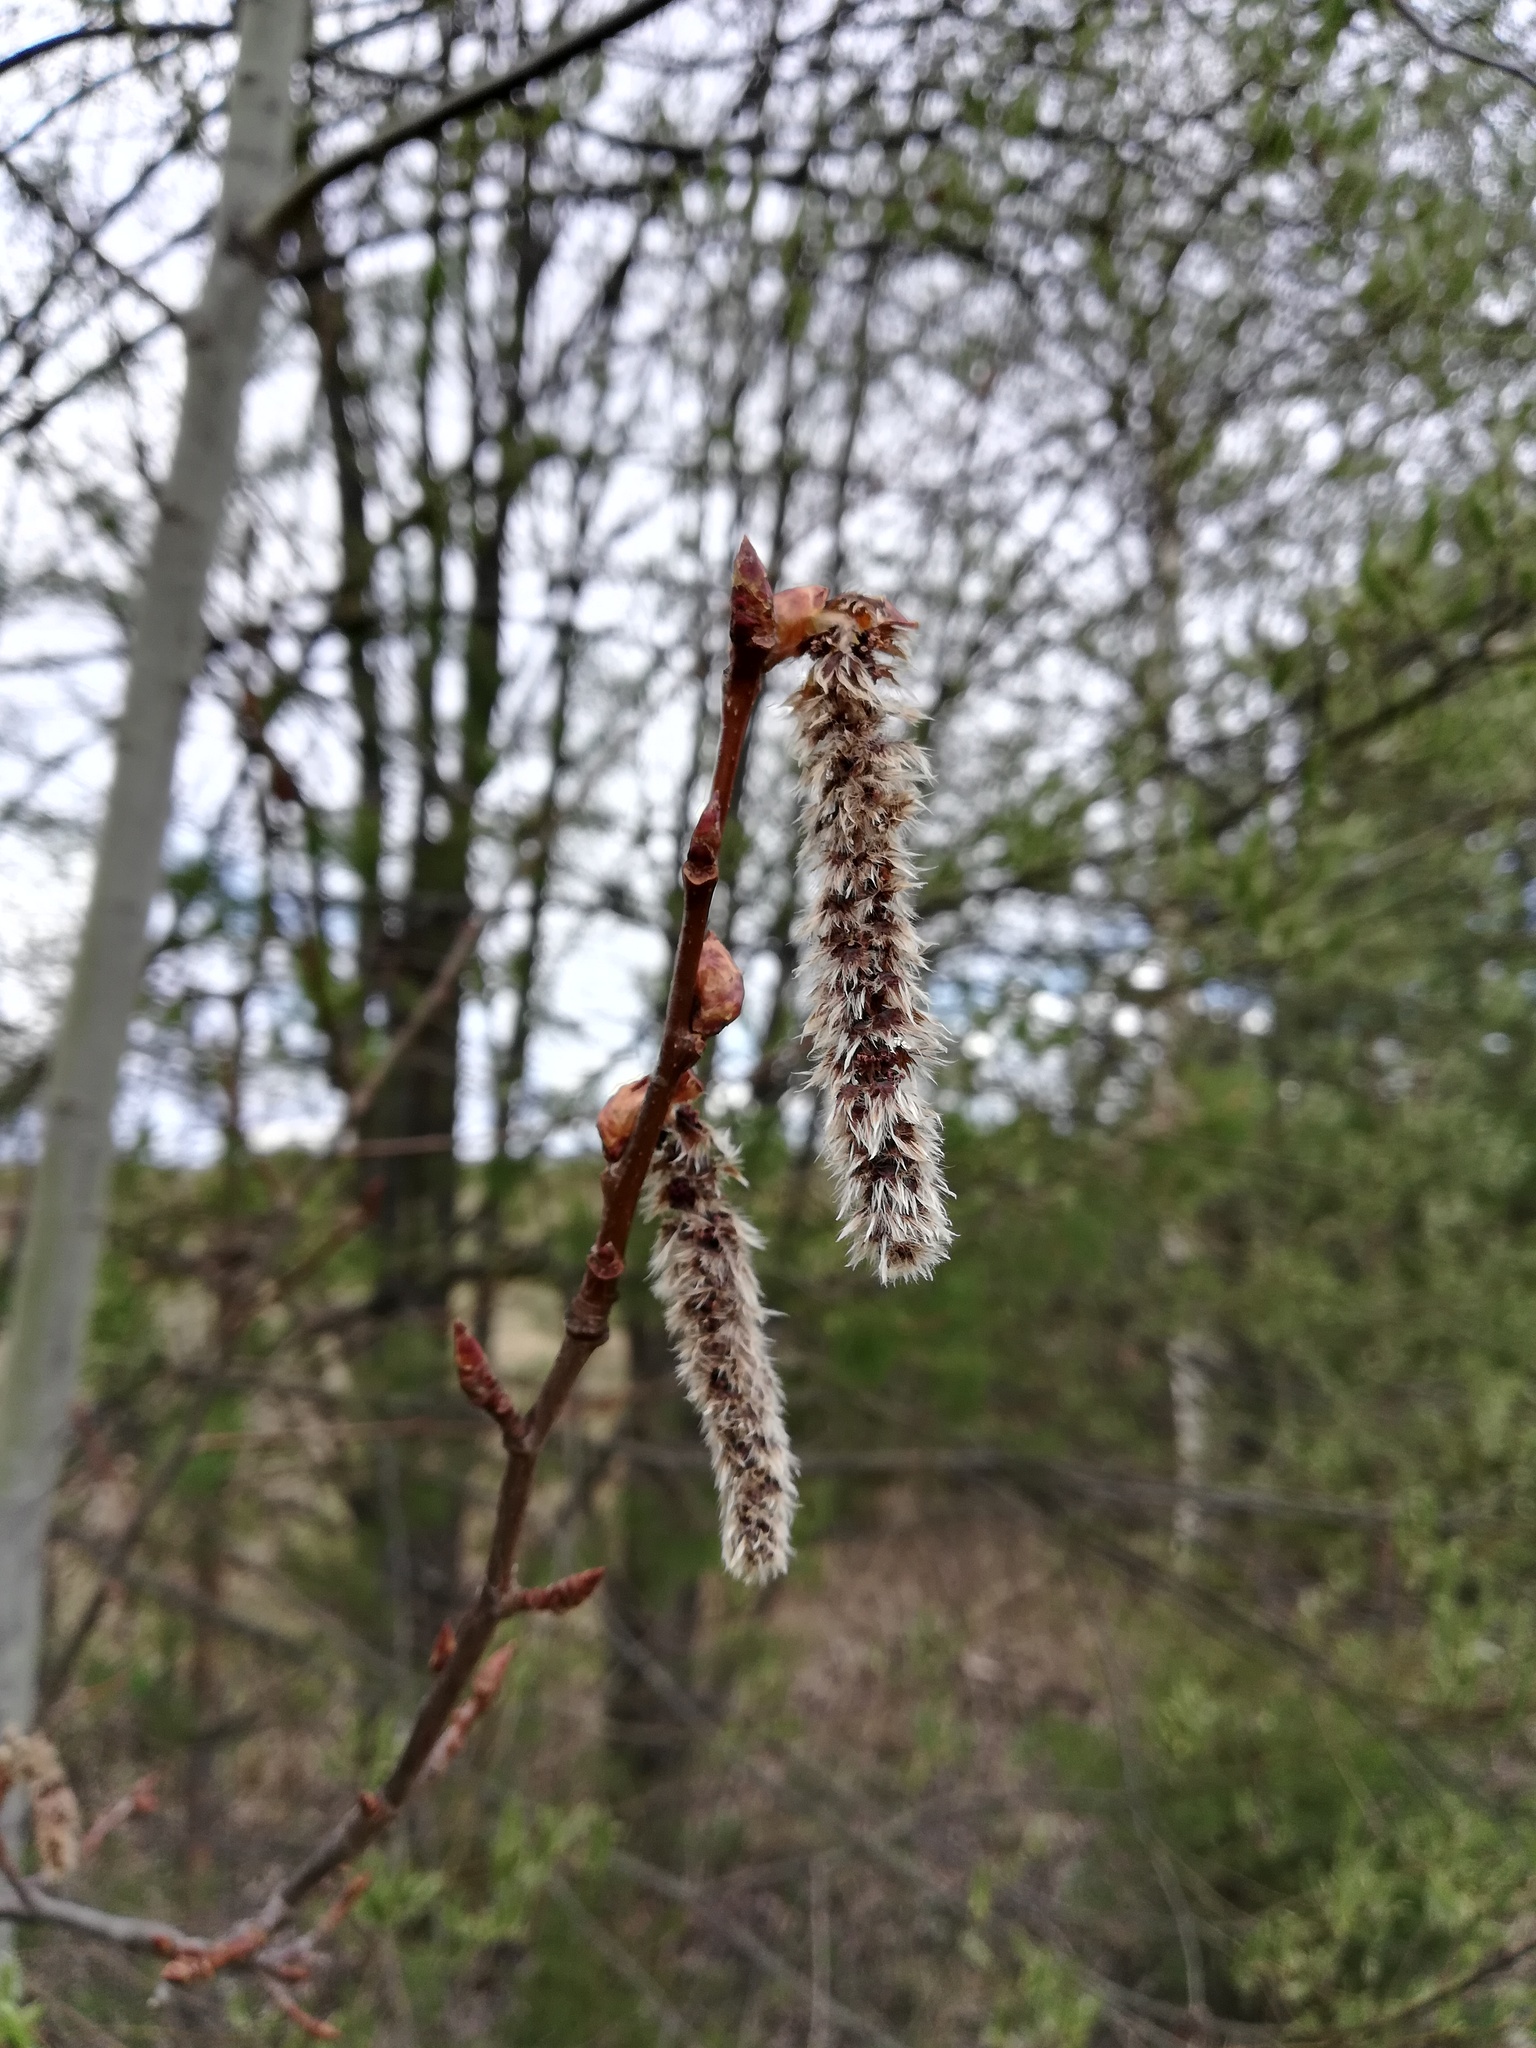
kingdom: Plantae
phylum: Tracheophyta
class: Magnoliopsida
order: Malpighiales
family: Salicaceae
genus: Populus
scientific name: Populus tremula
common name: European aspen
